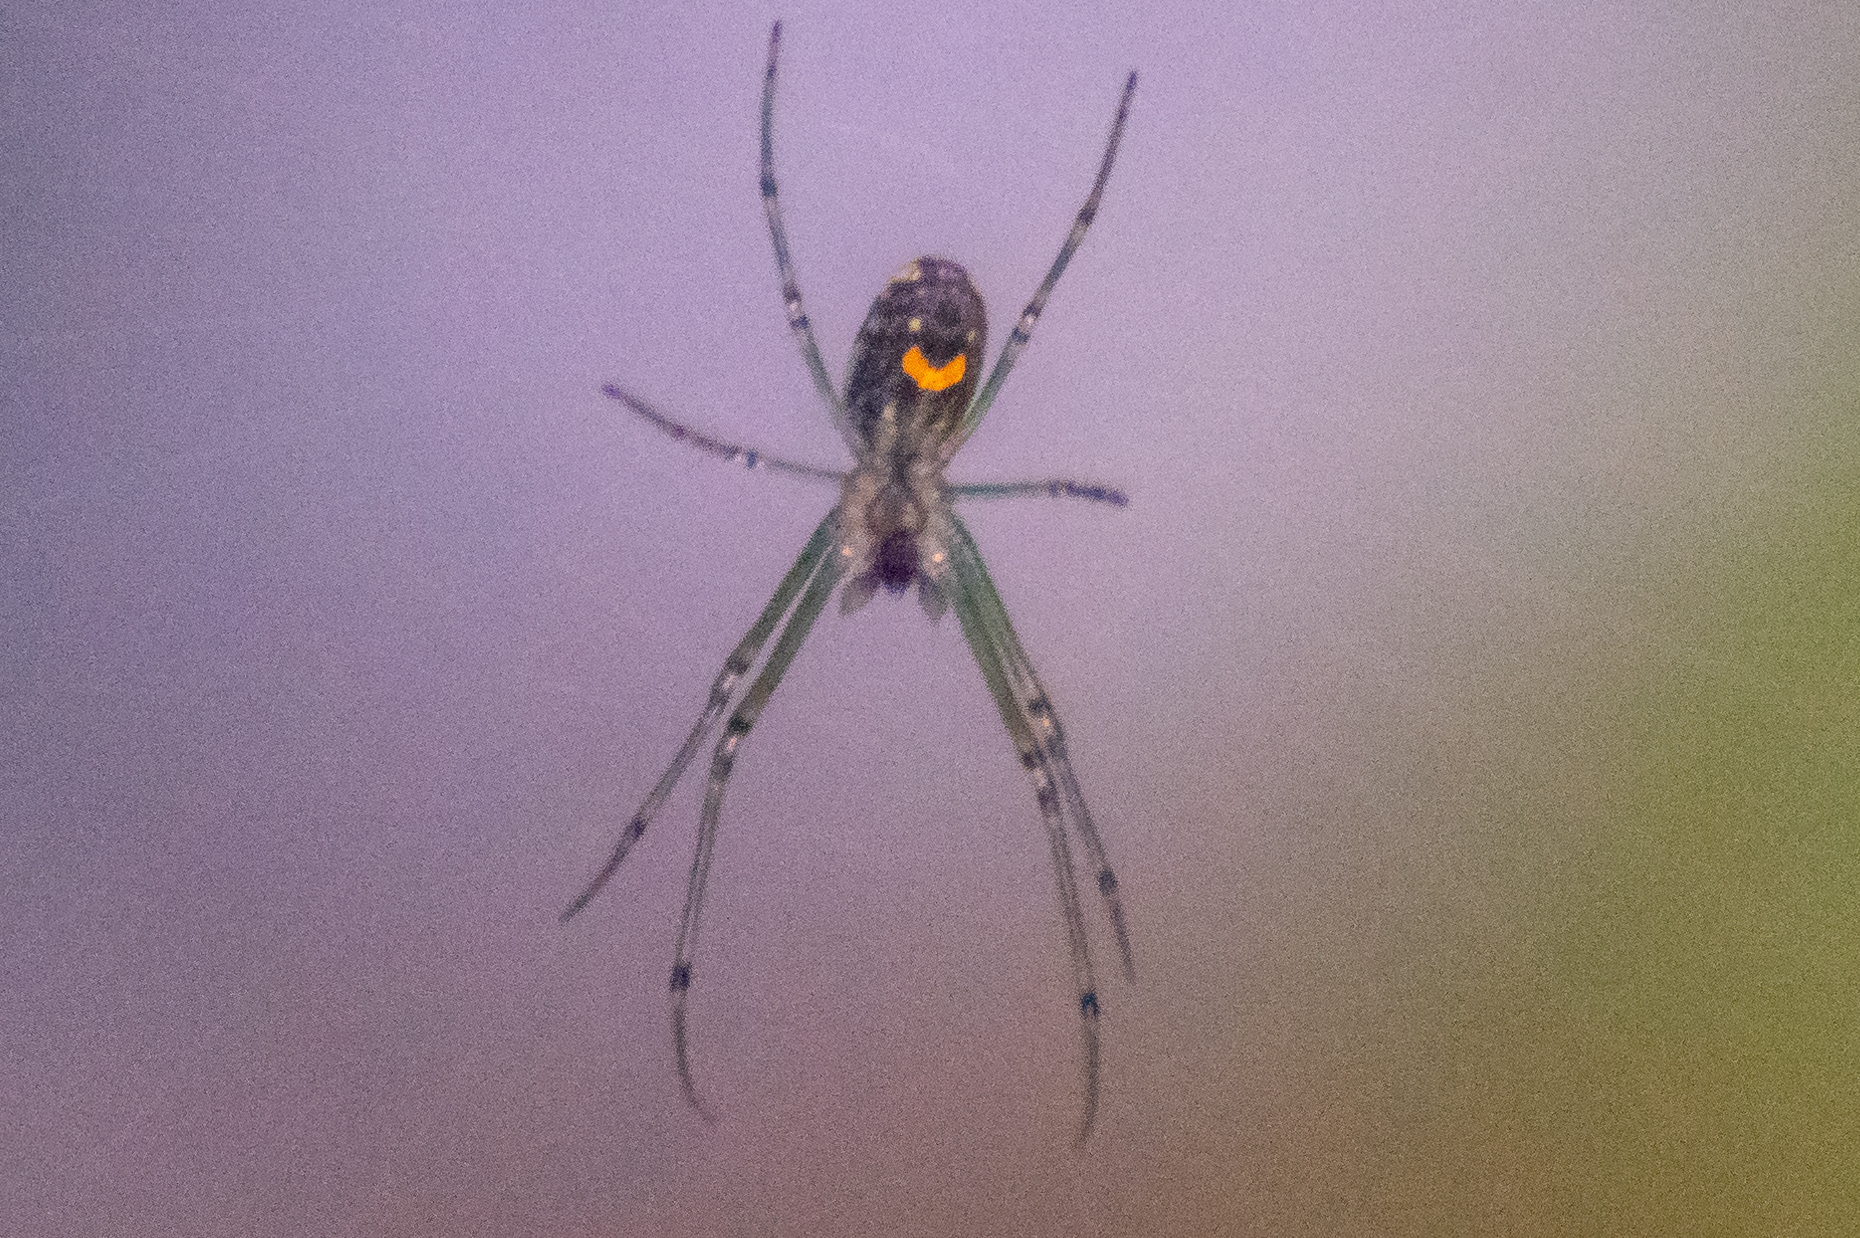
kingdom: Animalia
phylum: Arthropoda
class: Arachnida
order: Araneae
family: Tetragnathidae
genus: Leucauge
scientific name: Leucauge venusta
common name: Longjawed orb weavers
